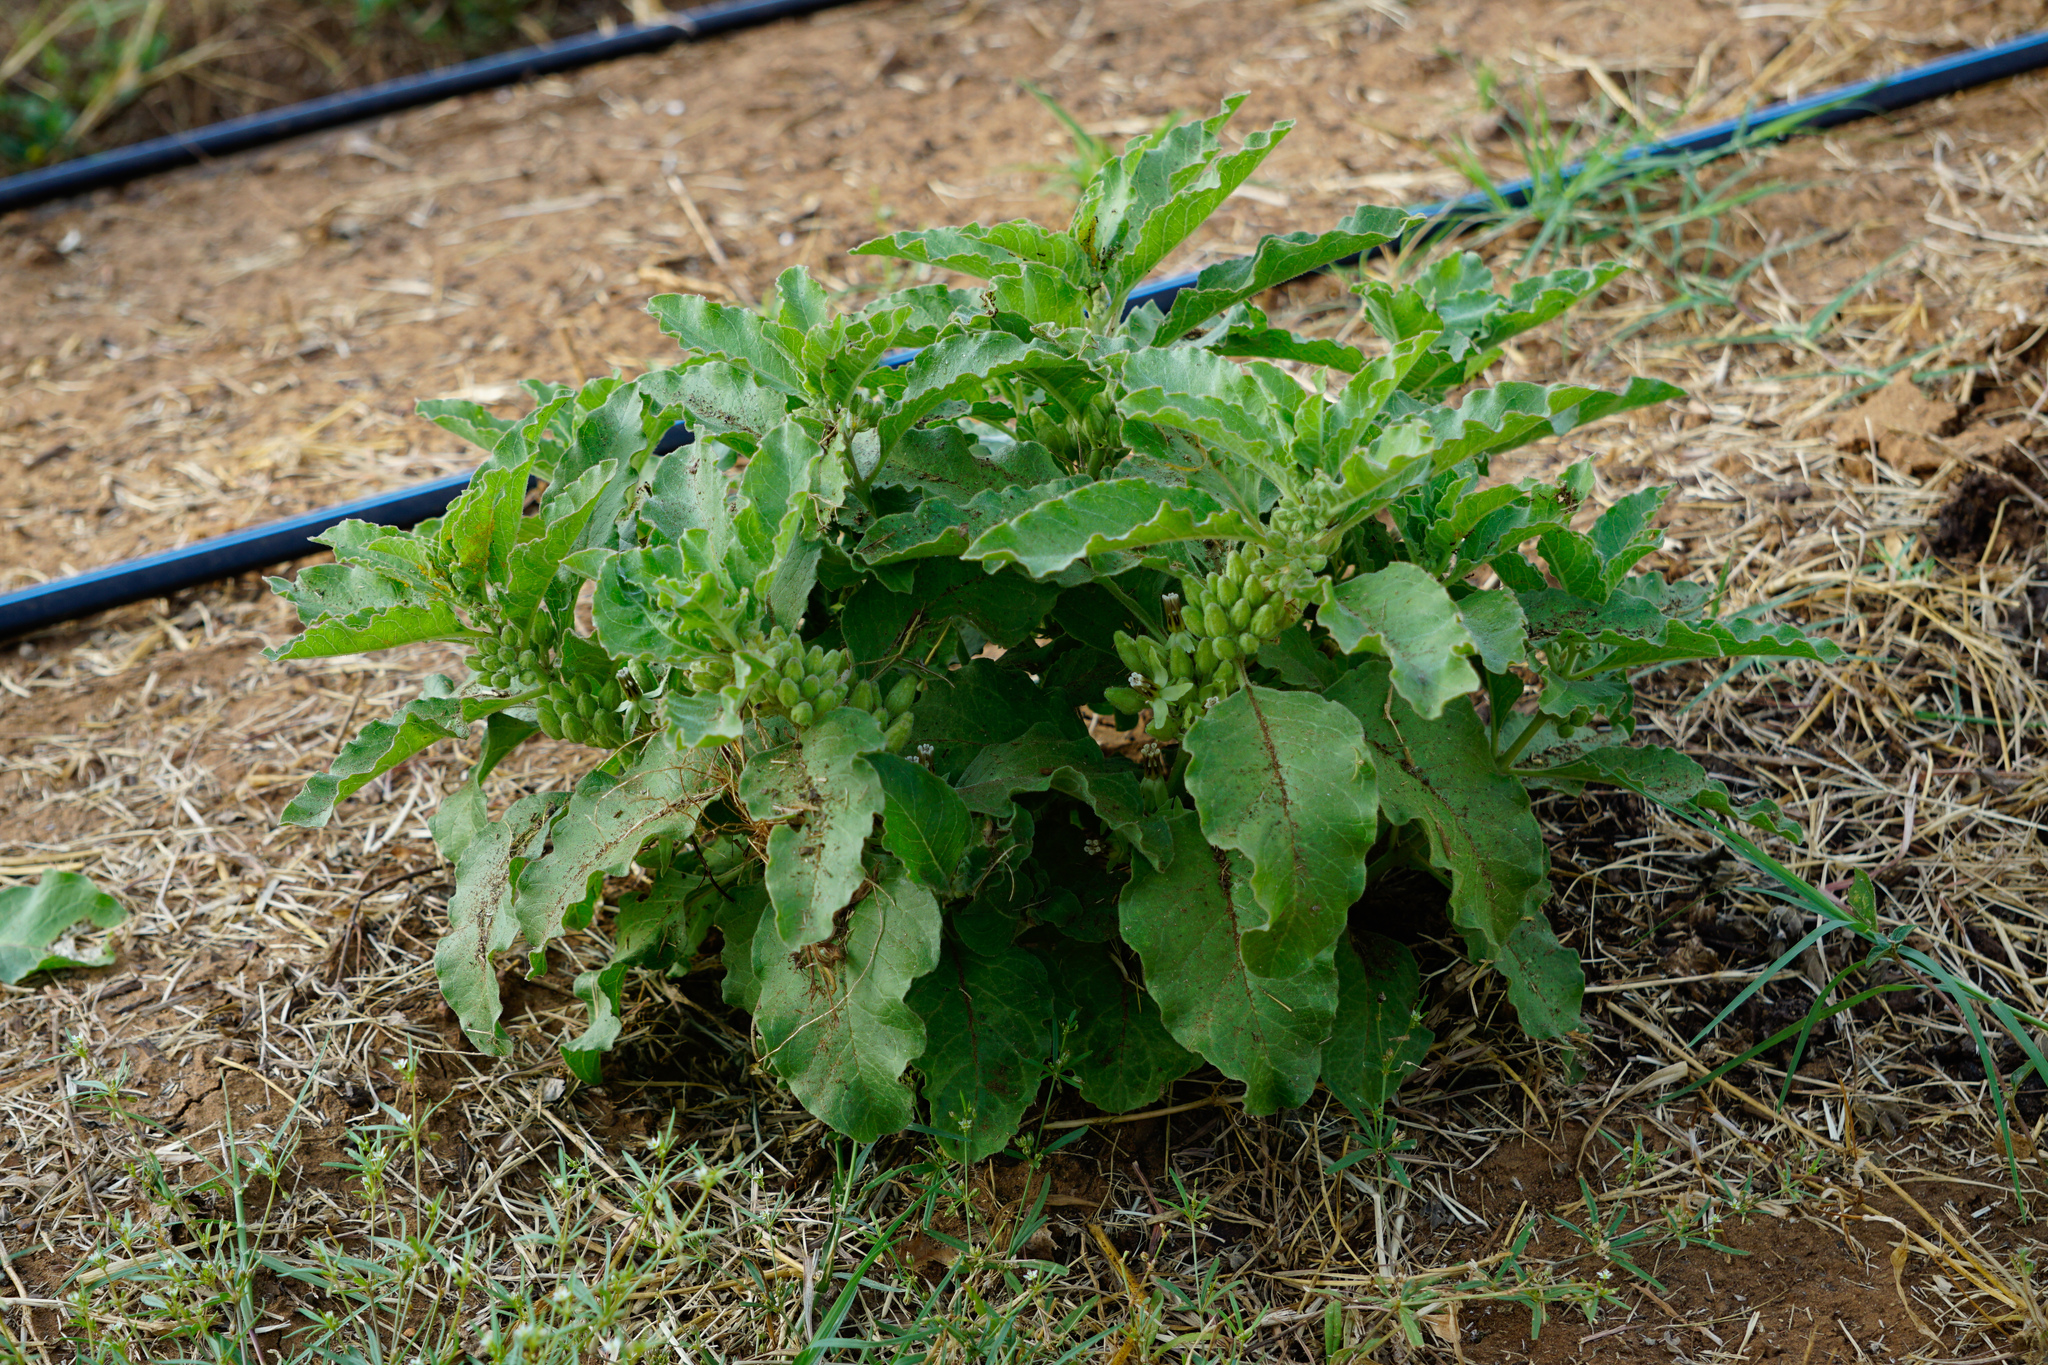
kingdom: Plantae
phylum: Tracheophyta
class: Magnoliopsida
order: Gentianales
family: Apocynaceae
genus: Asclepias
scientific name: Asclepias oenotheroides
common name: Zizotes milkweed
